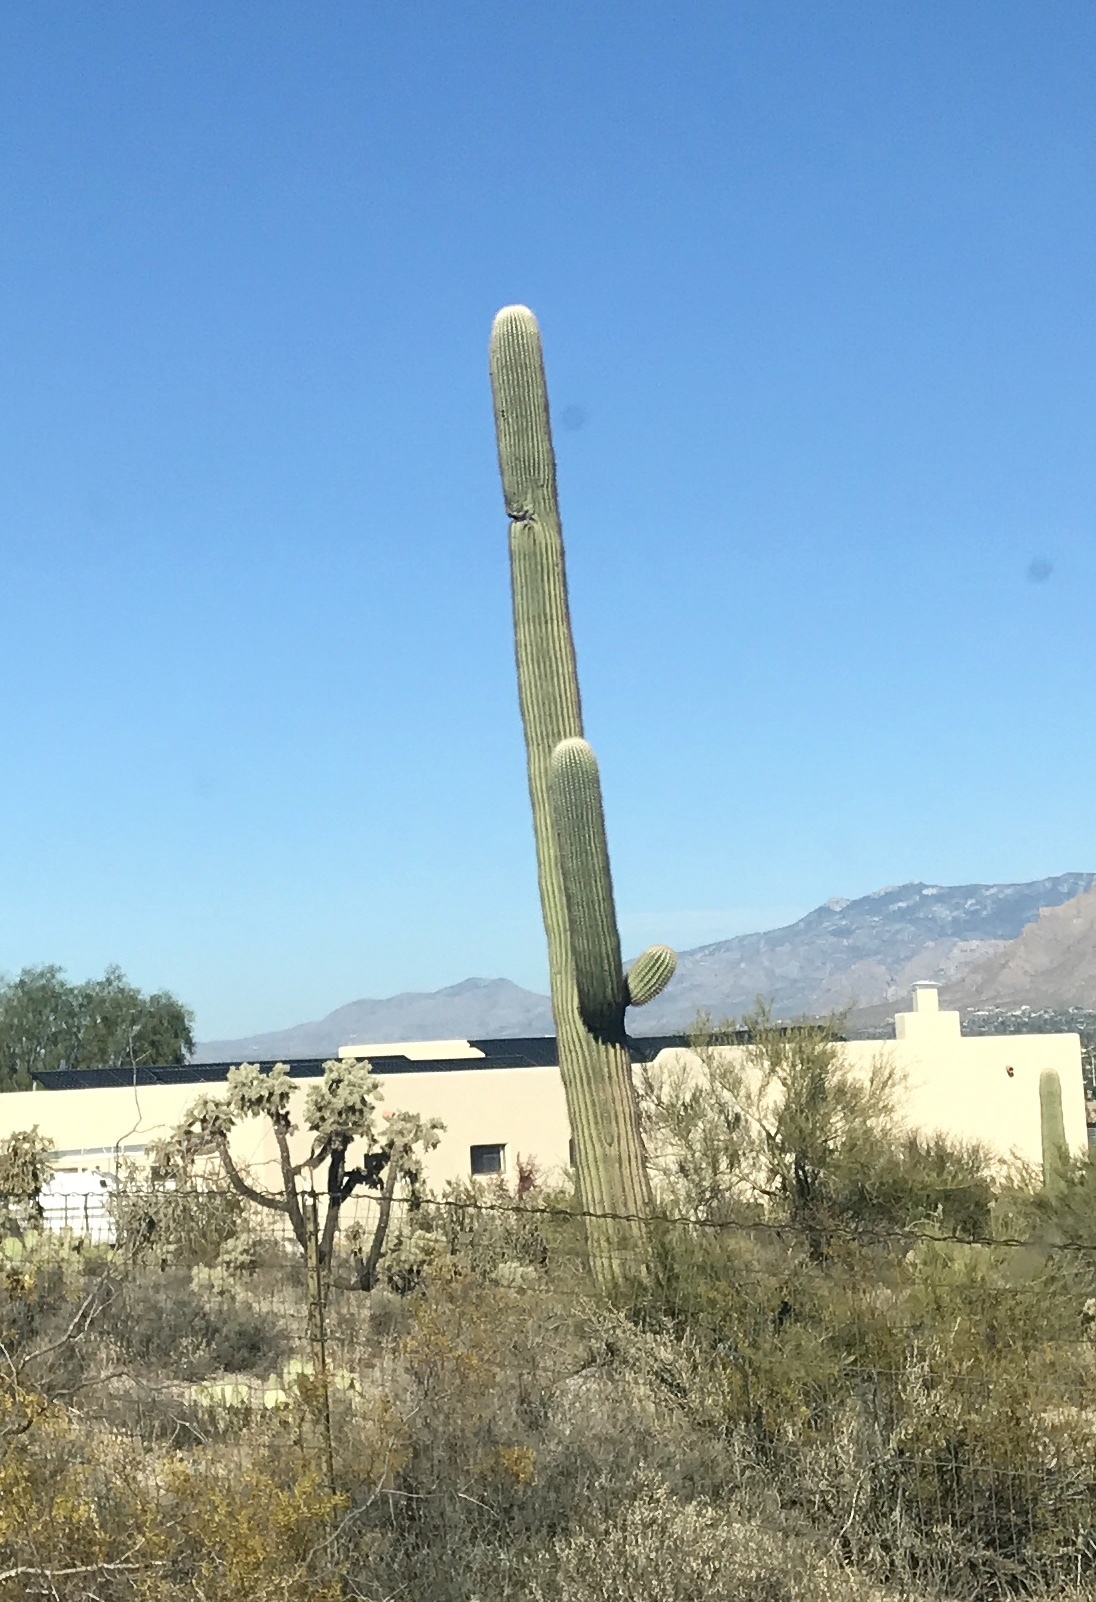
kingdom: Plantae
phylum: Tracheophyta
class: Magnoliopsida
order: Caryophyllales
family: Cactaceae
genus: Carnegiea
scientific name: Carnegiea gigantea
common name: Saguaro
